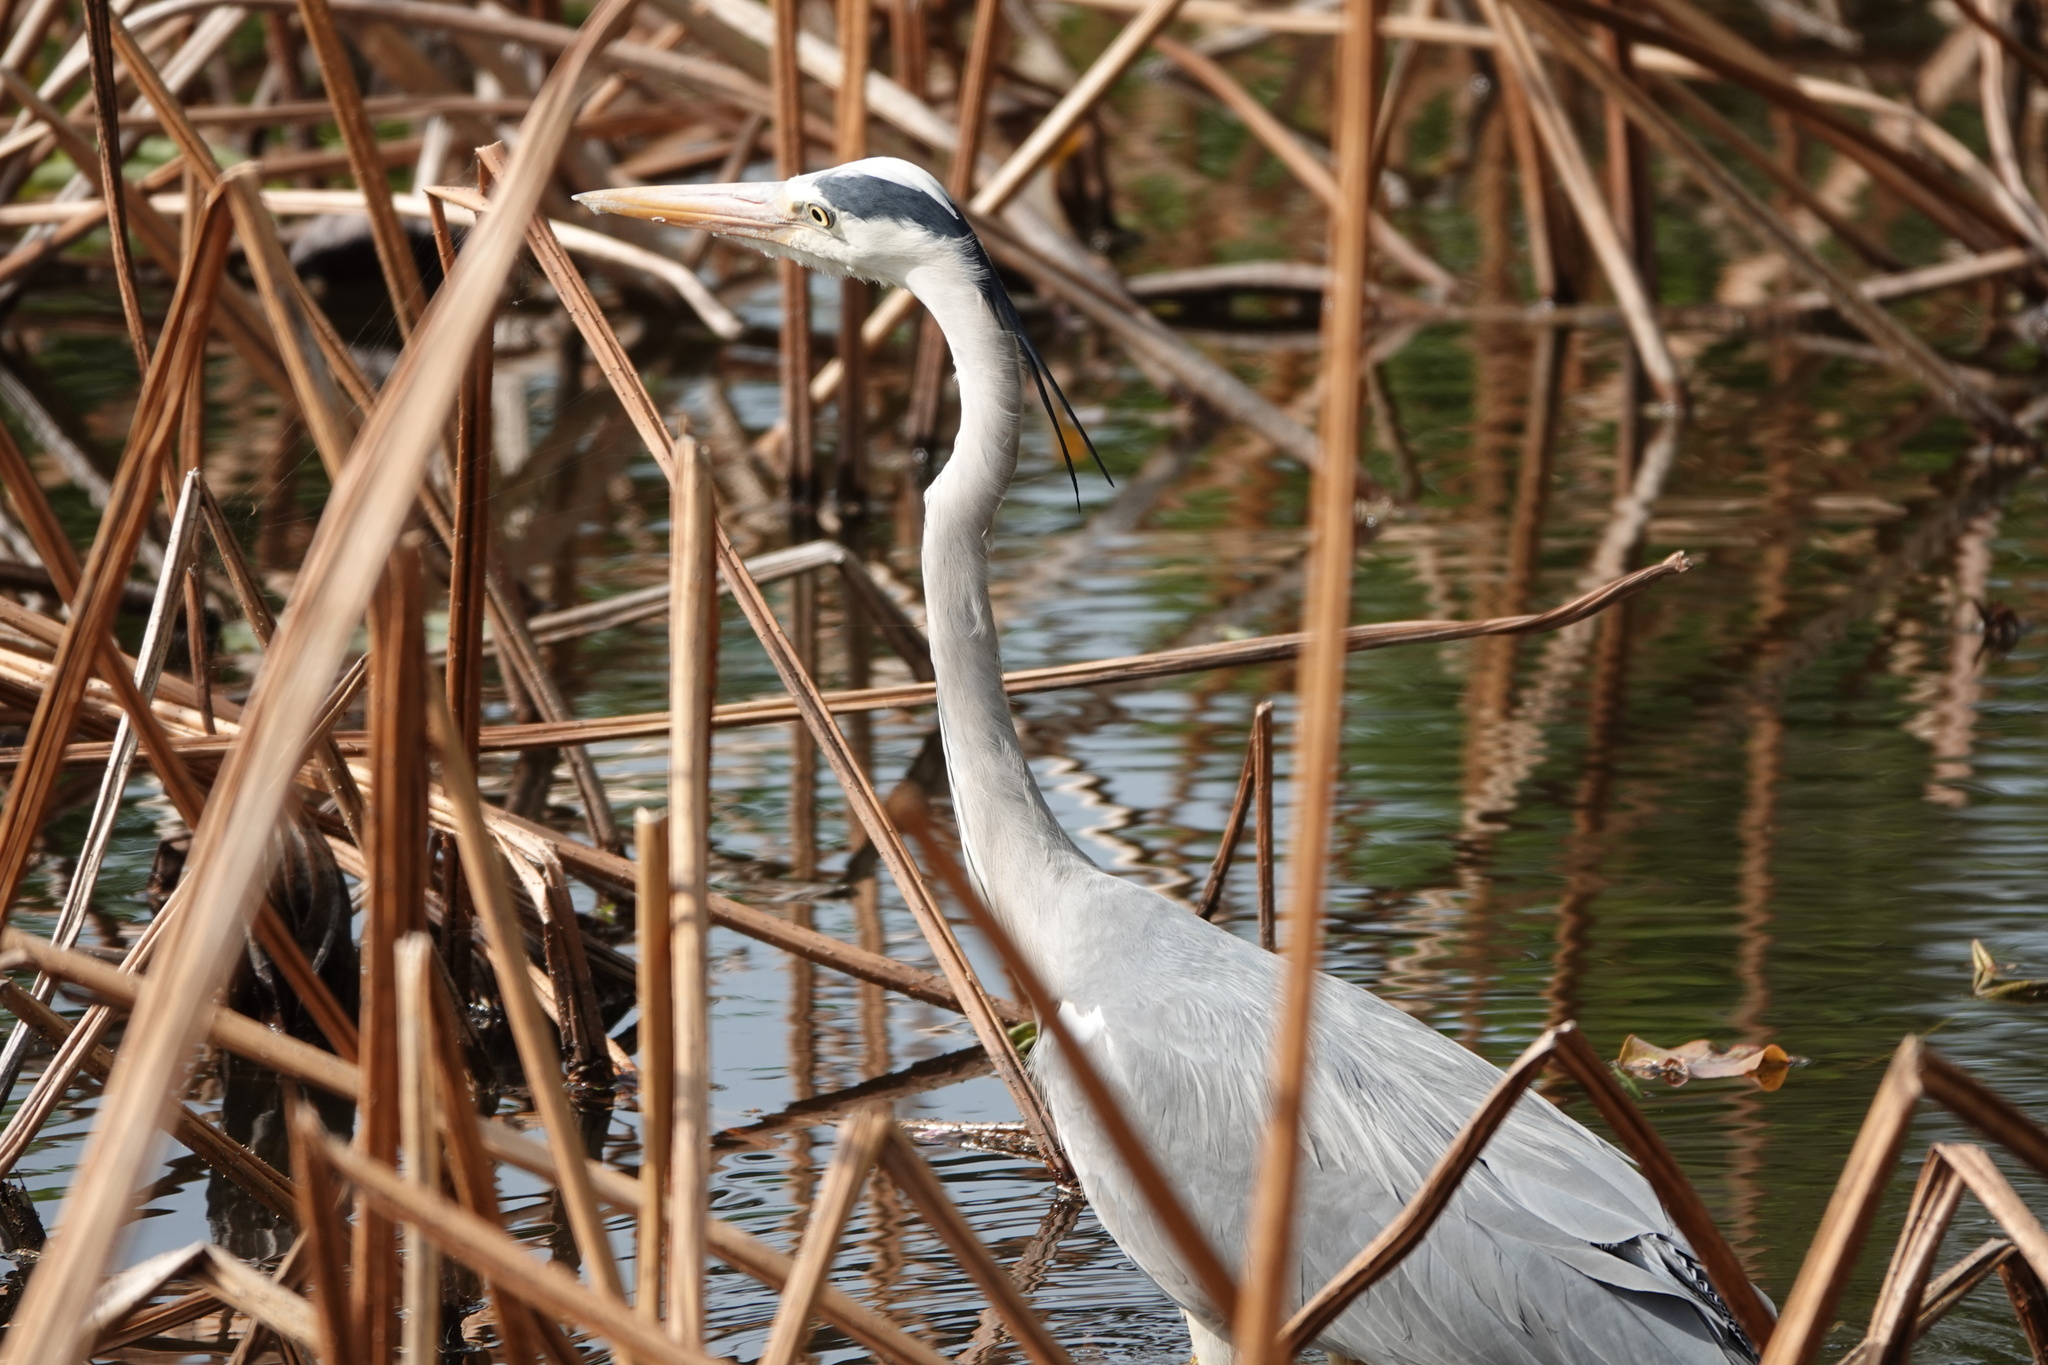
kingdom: Animalia
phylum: Chordata
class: Aves
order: Pelecaniformes
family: Ardeidae
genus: Ardea
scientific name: Ardea cinerea
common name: Grey heron
